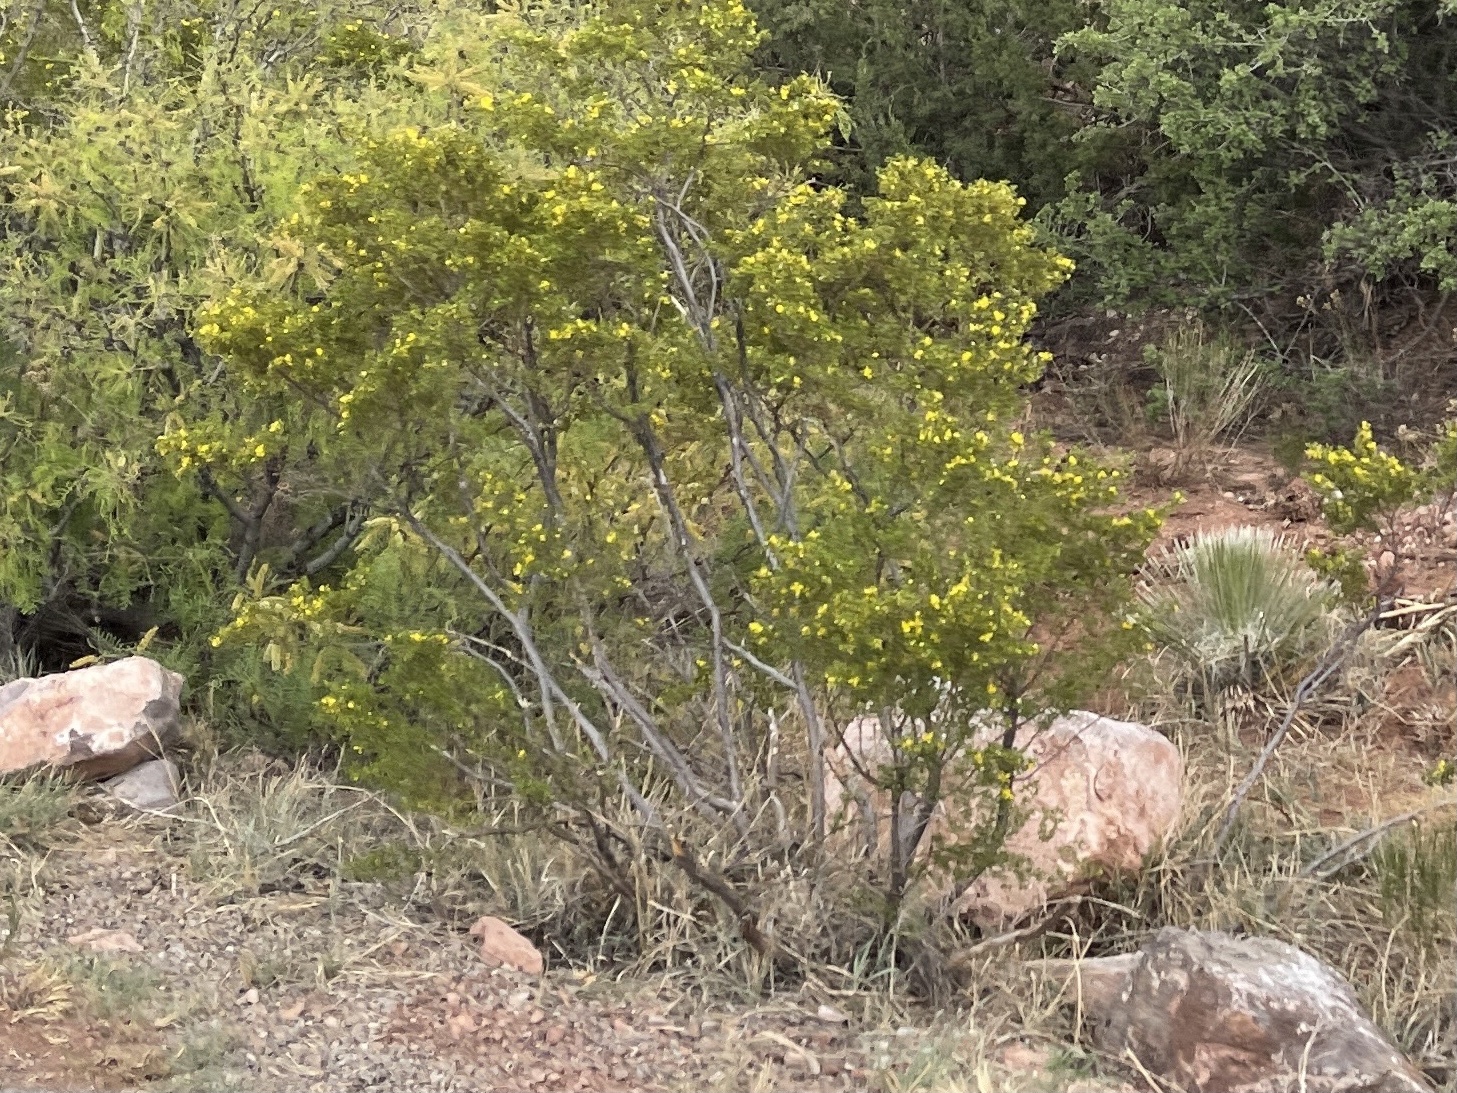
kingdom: Plantae
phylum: Tracheophyta
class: Magnoliopsida
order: Zygophyllales
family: Zygophyllaceae
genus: Larrea
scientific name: Larrea tridentata
